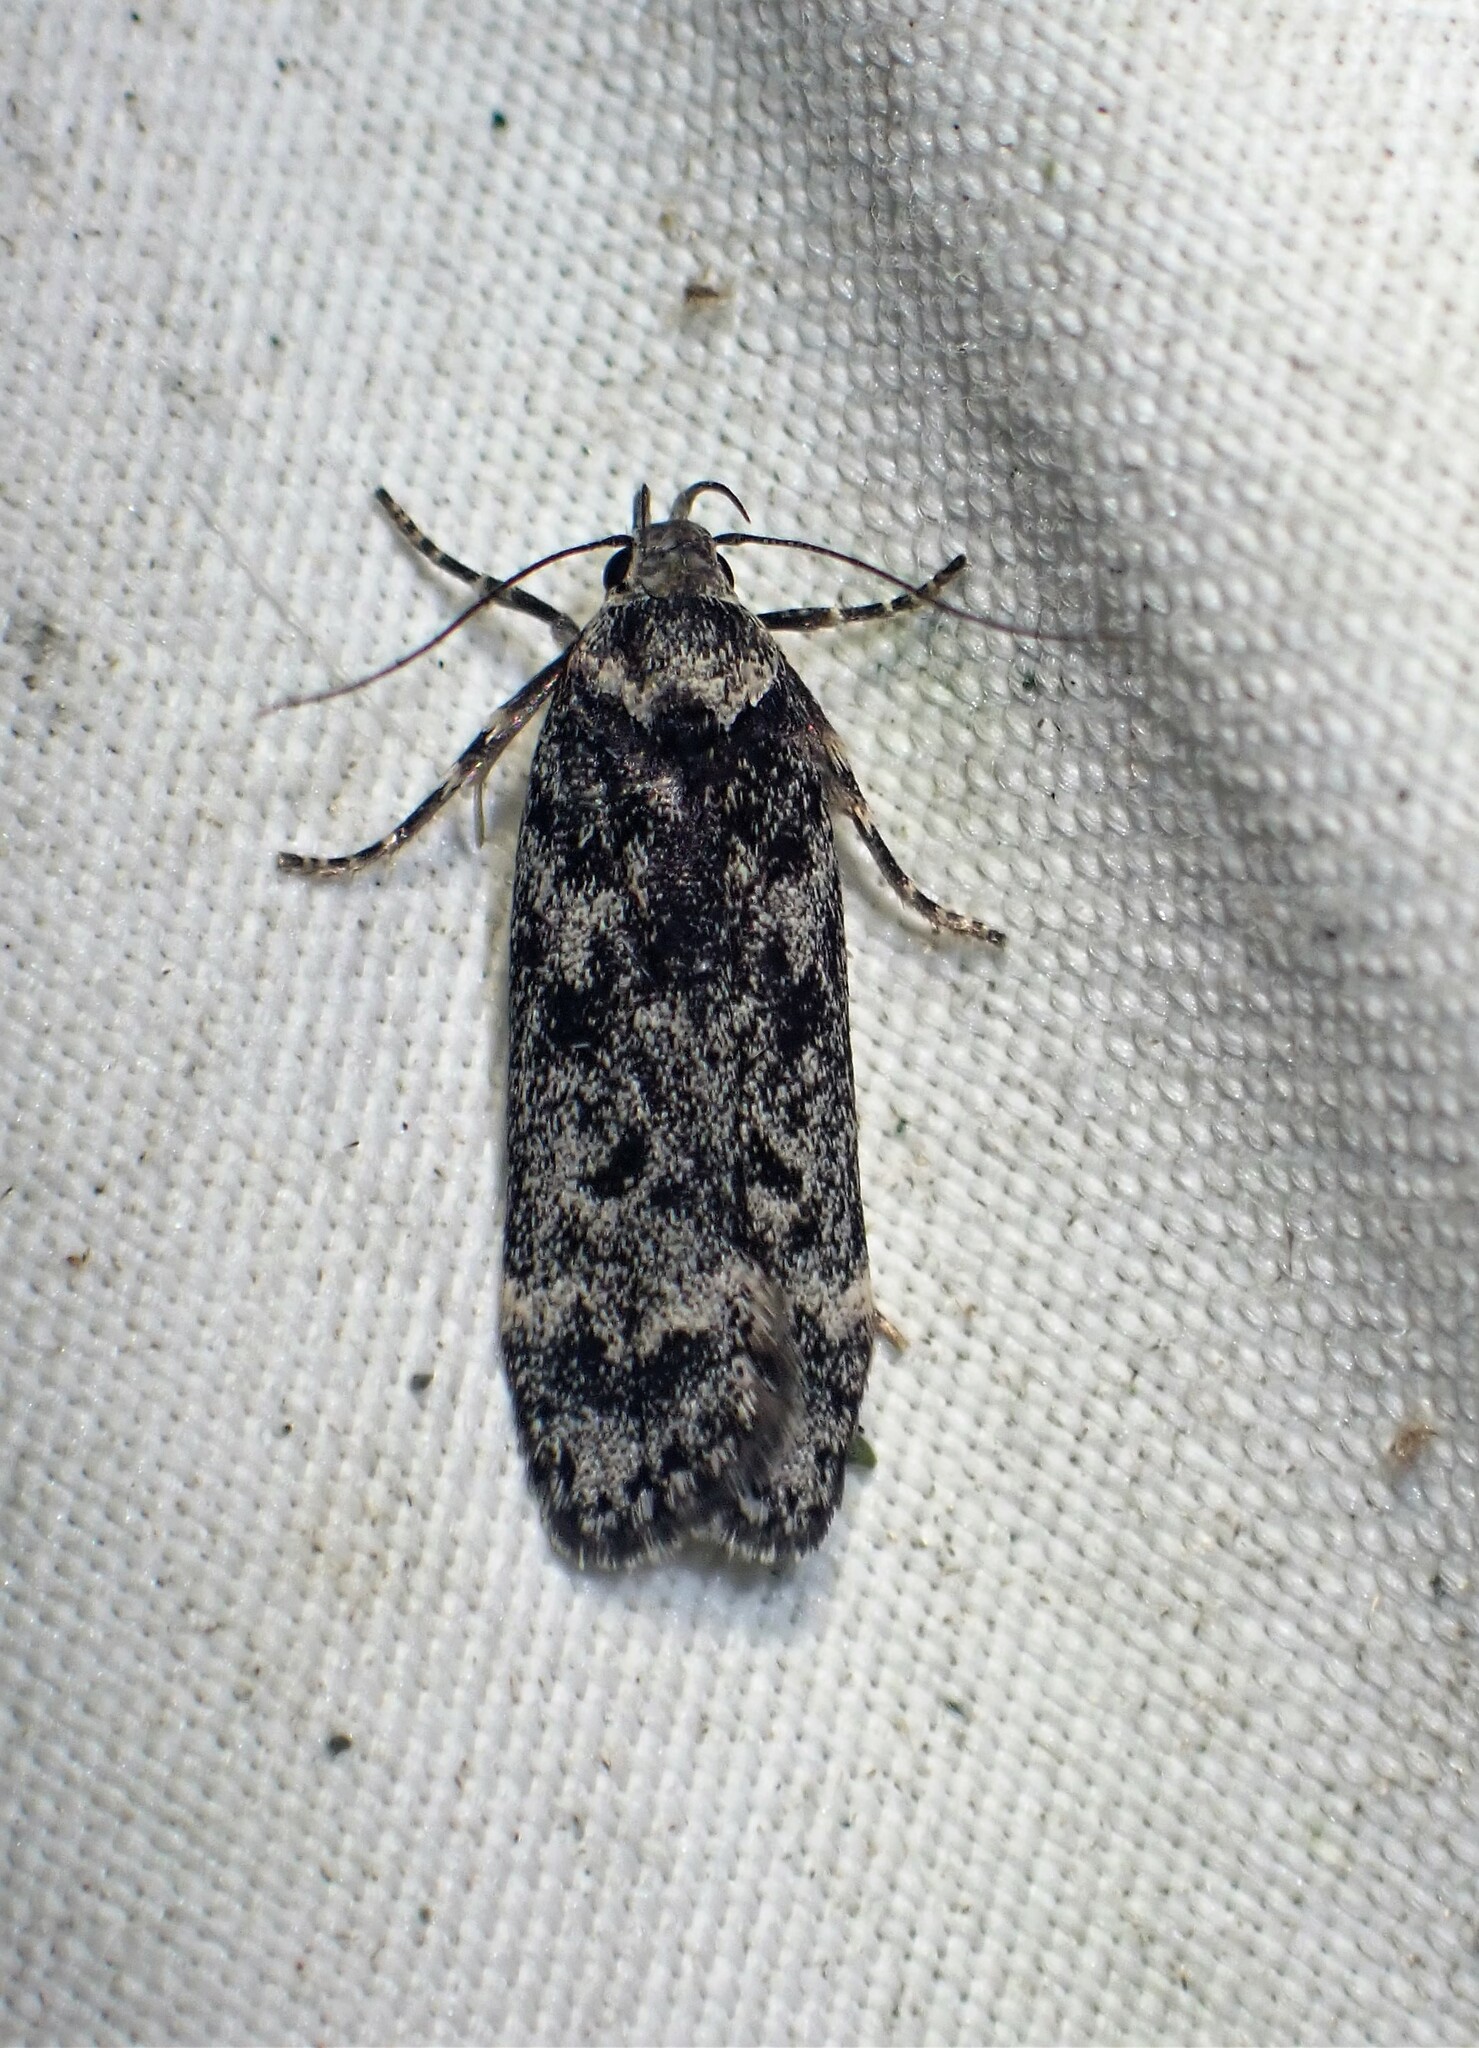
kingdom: Animalia
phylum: Arthropoda
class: Insecta
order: Lepidoptera
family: Gelechiidae
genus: Anacampsis
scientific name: Anacampsis niveopulvella
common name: Pale-headed aspen leafroller moth
